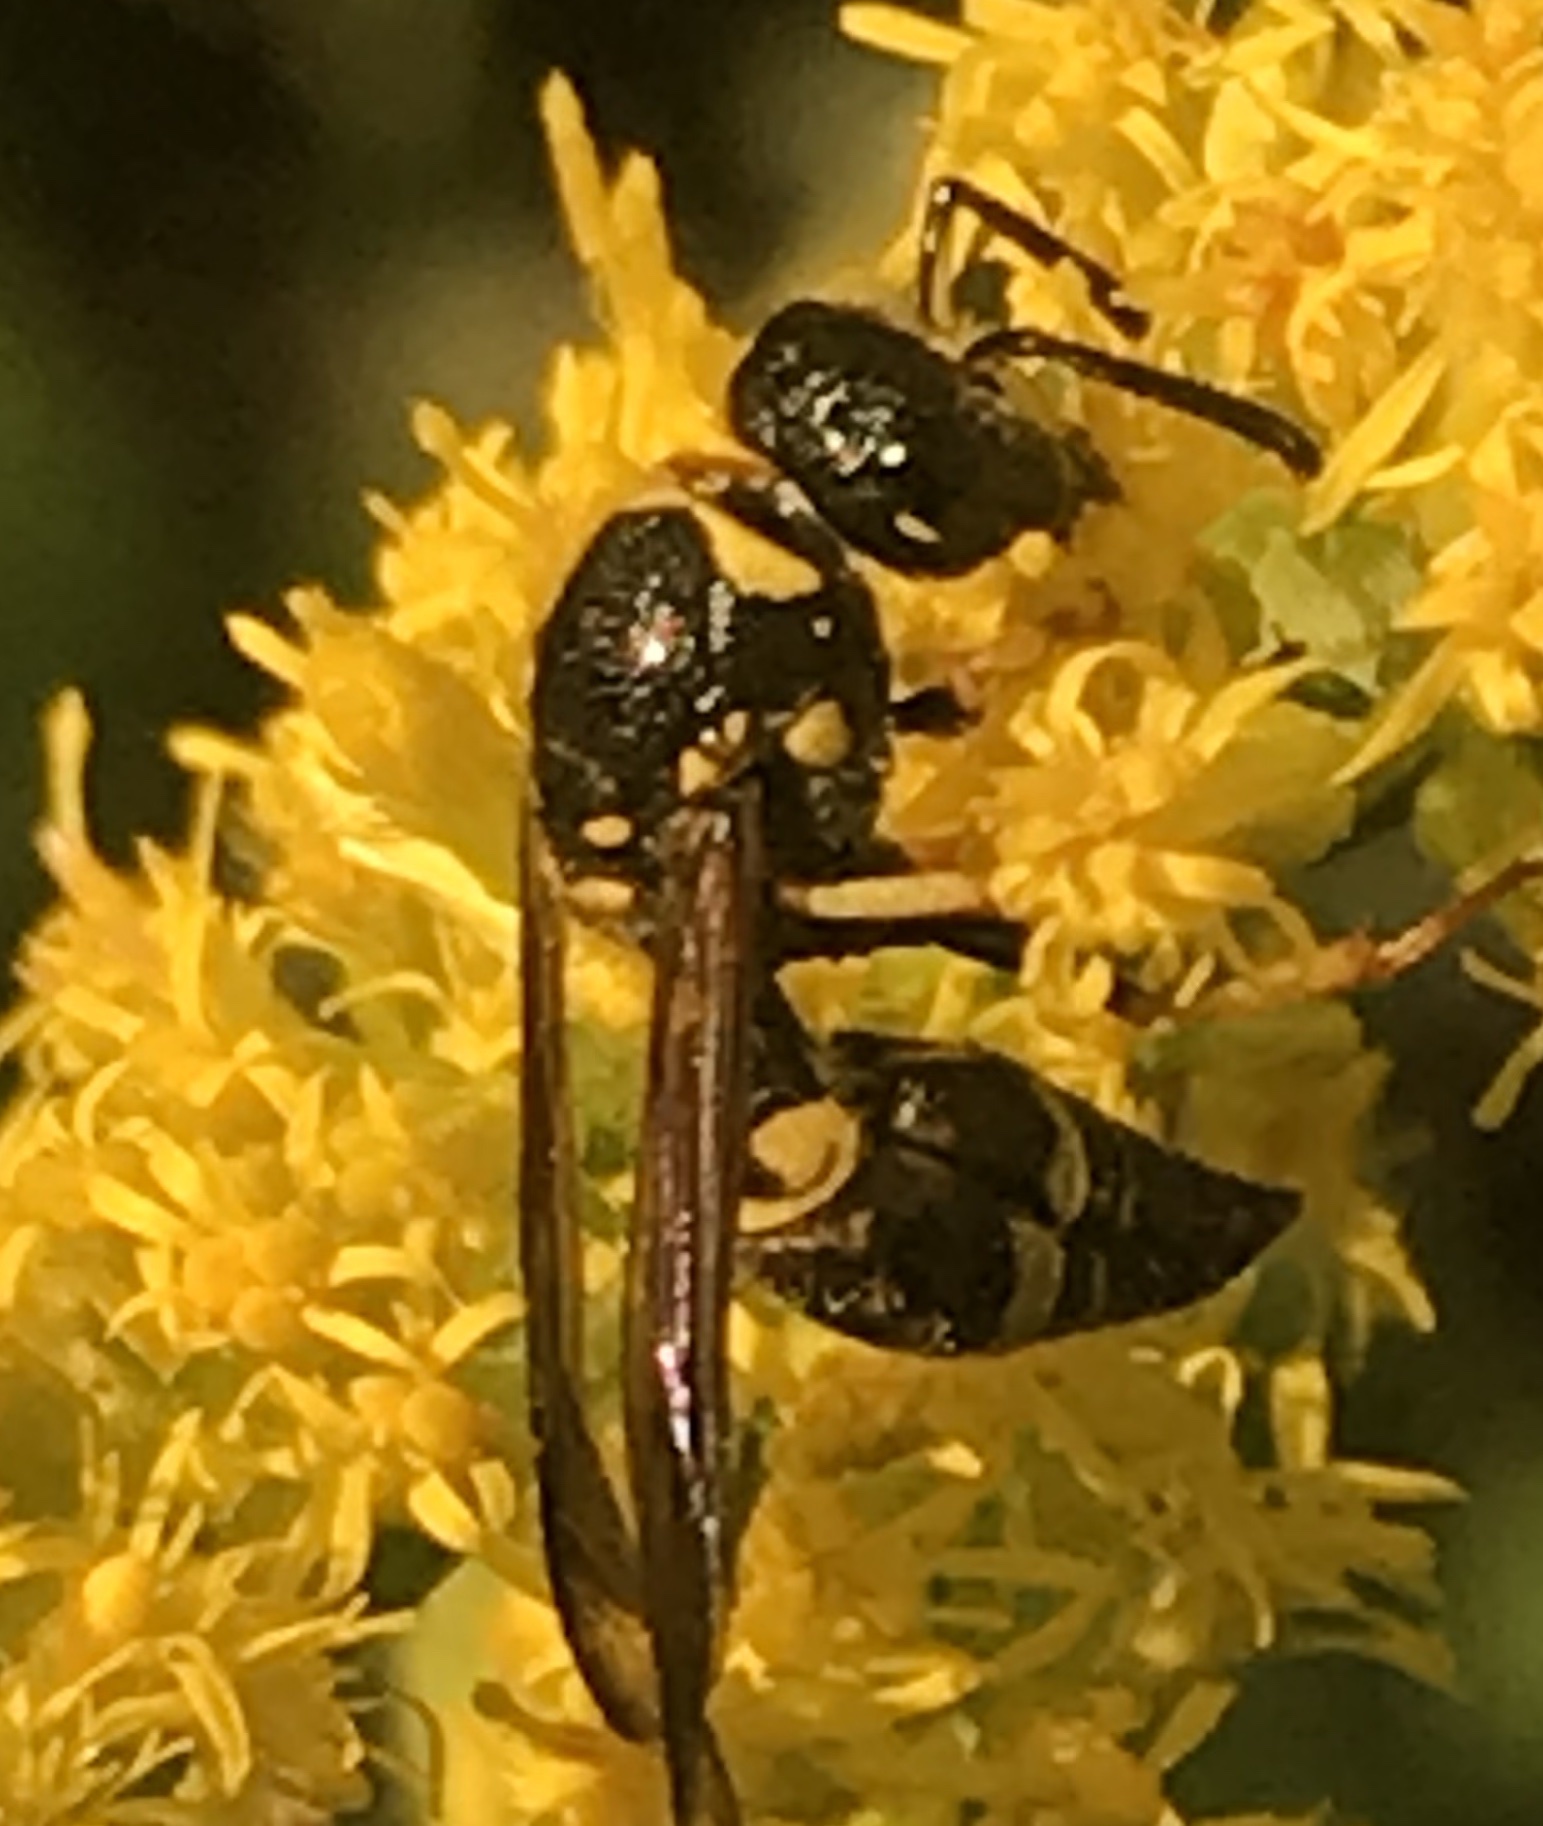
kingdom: Animalia
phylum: Arthropoda
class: Insecta
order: Hymenoptera
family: Vespidae
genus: Ancistrocerus
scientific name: Ancistrocerus campestris
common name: Smiling mason wasp
